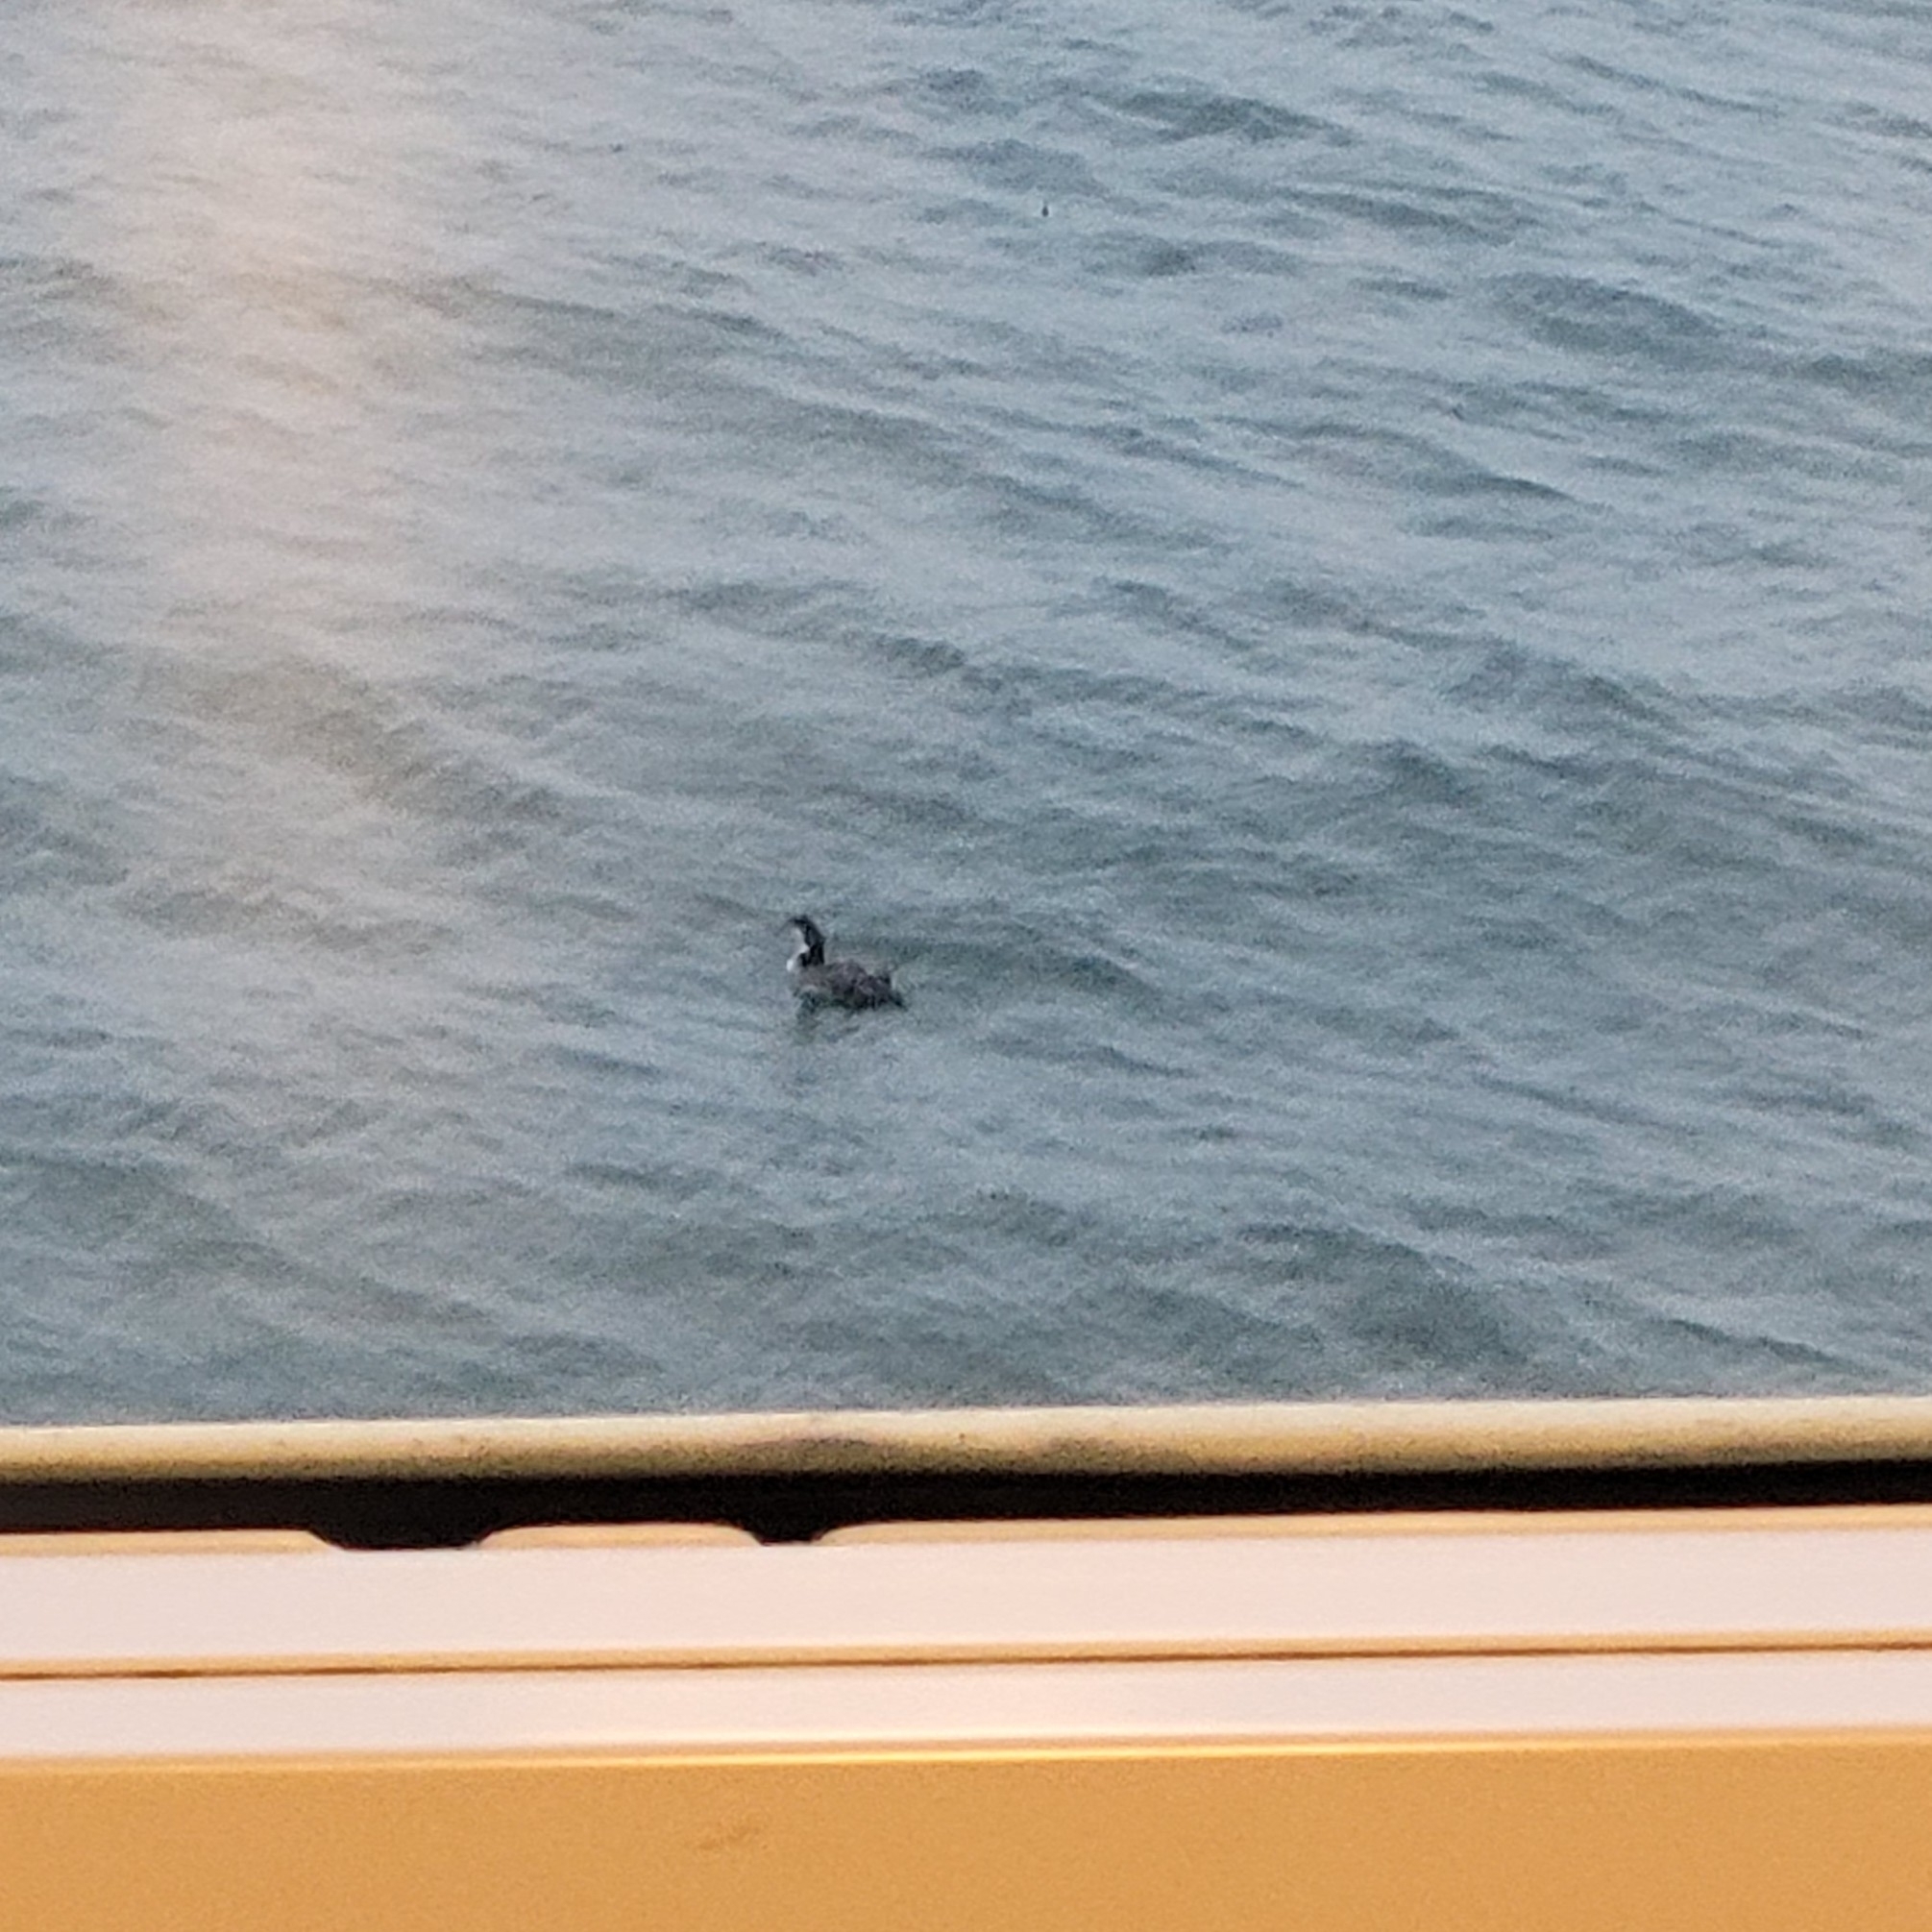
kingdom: Animalia
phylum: Chordata
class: Aves
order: Gaviiformes
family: Gaviidae
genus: Gavia
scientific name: Gavia immer
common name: Common loon
